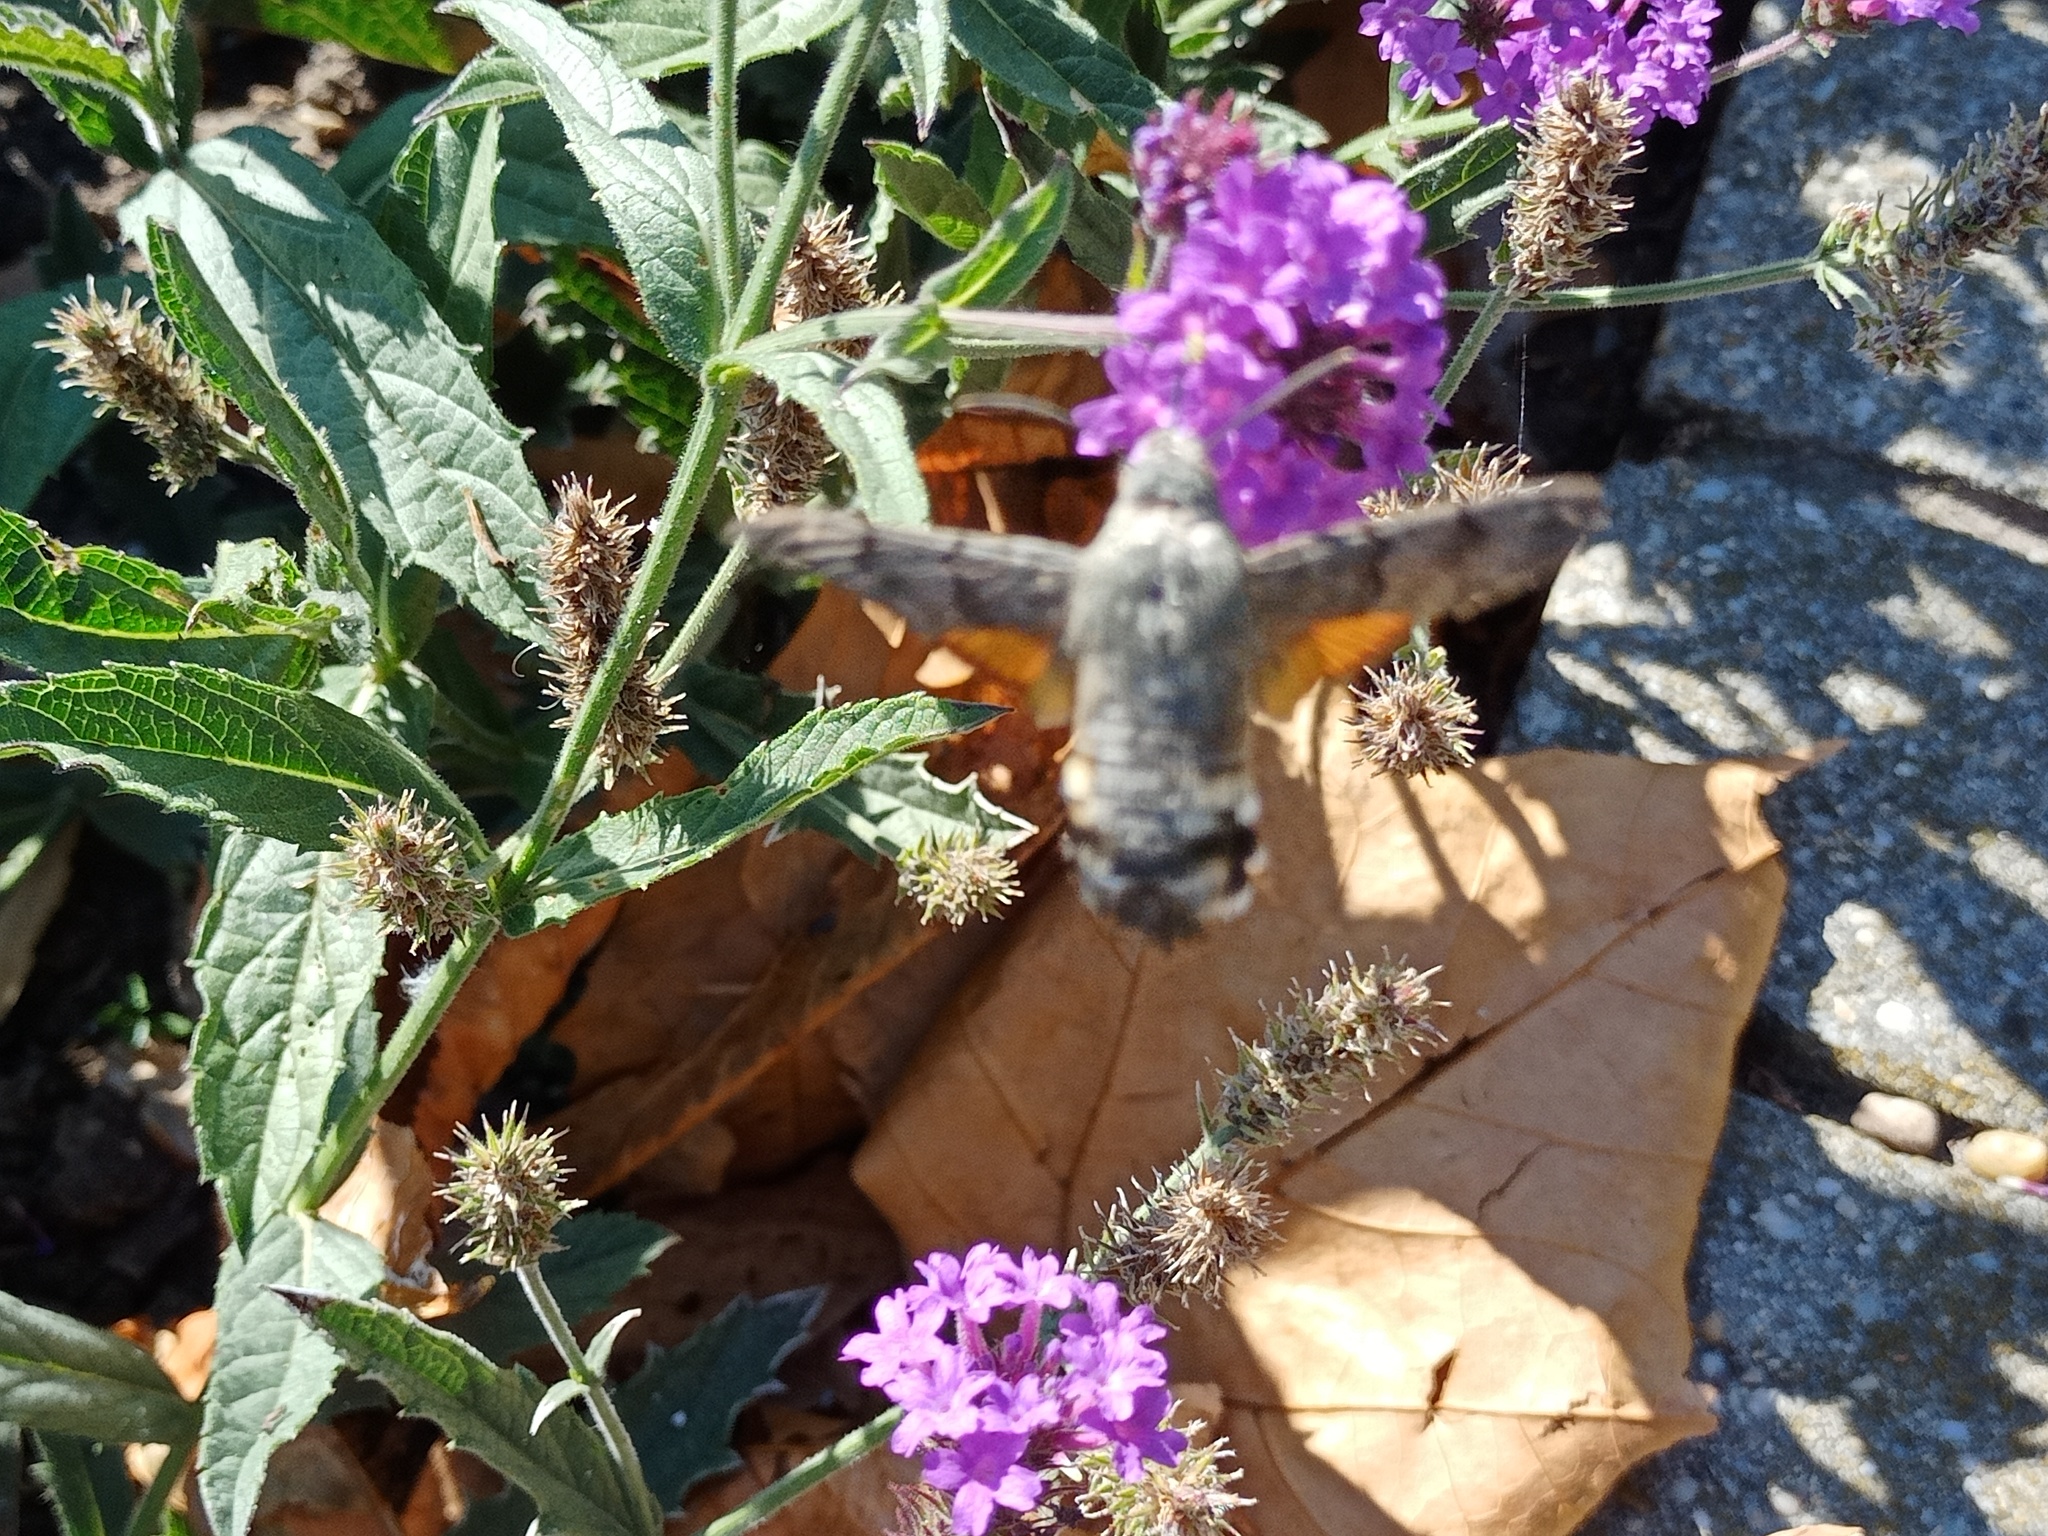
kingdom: Animalia
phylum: Arthropoda
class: Insecta
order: Lepidoptera
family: Sphingidae
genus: Macroglossum
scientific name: Macroglossum stellatarum
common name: Humming-bird hawk-moth
